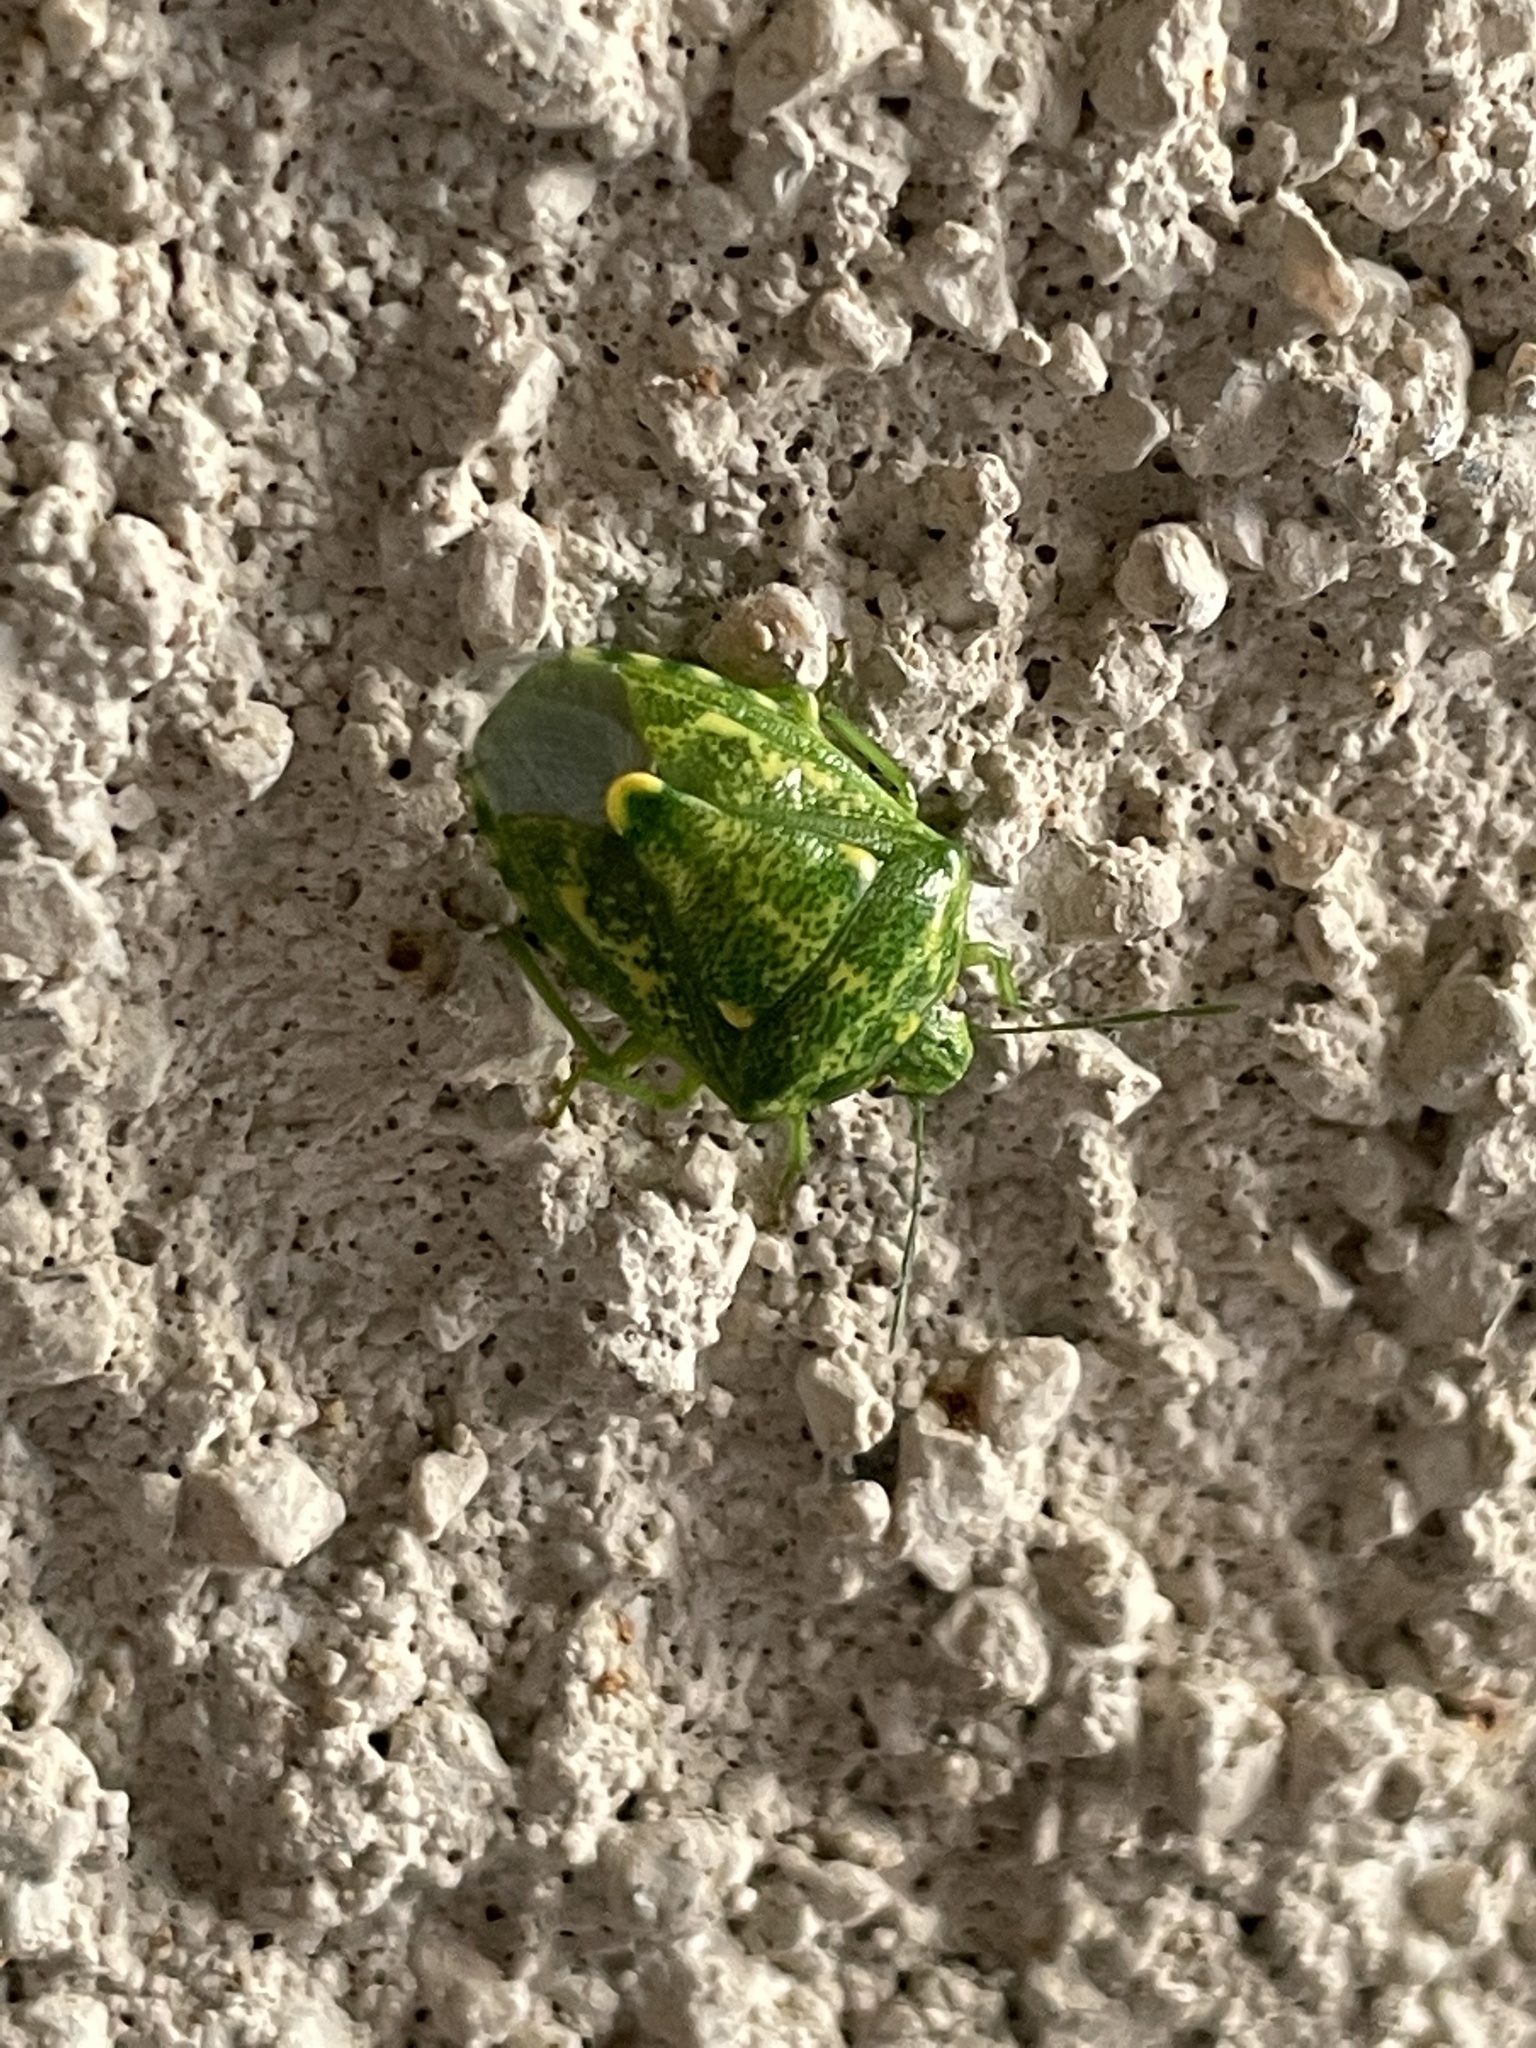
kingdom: Animalia
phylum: Arthropoda
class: Insecta
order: Hemiptera
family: Pentatomidae
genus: Banasa
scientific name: Banasa euchlora
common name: Cedar berry bug
